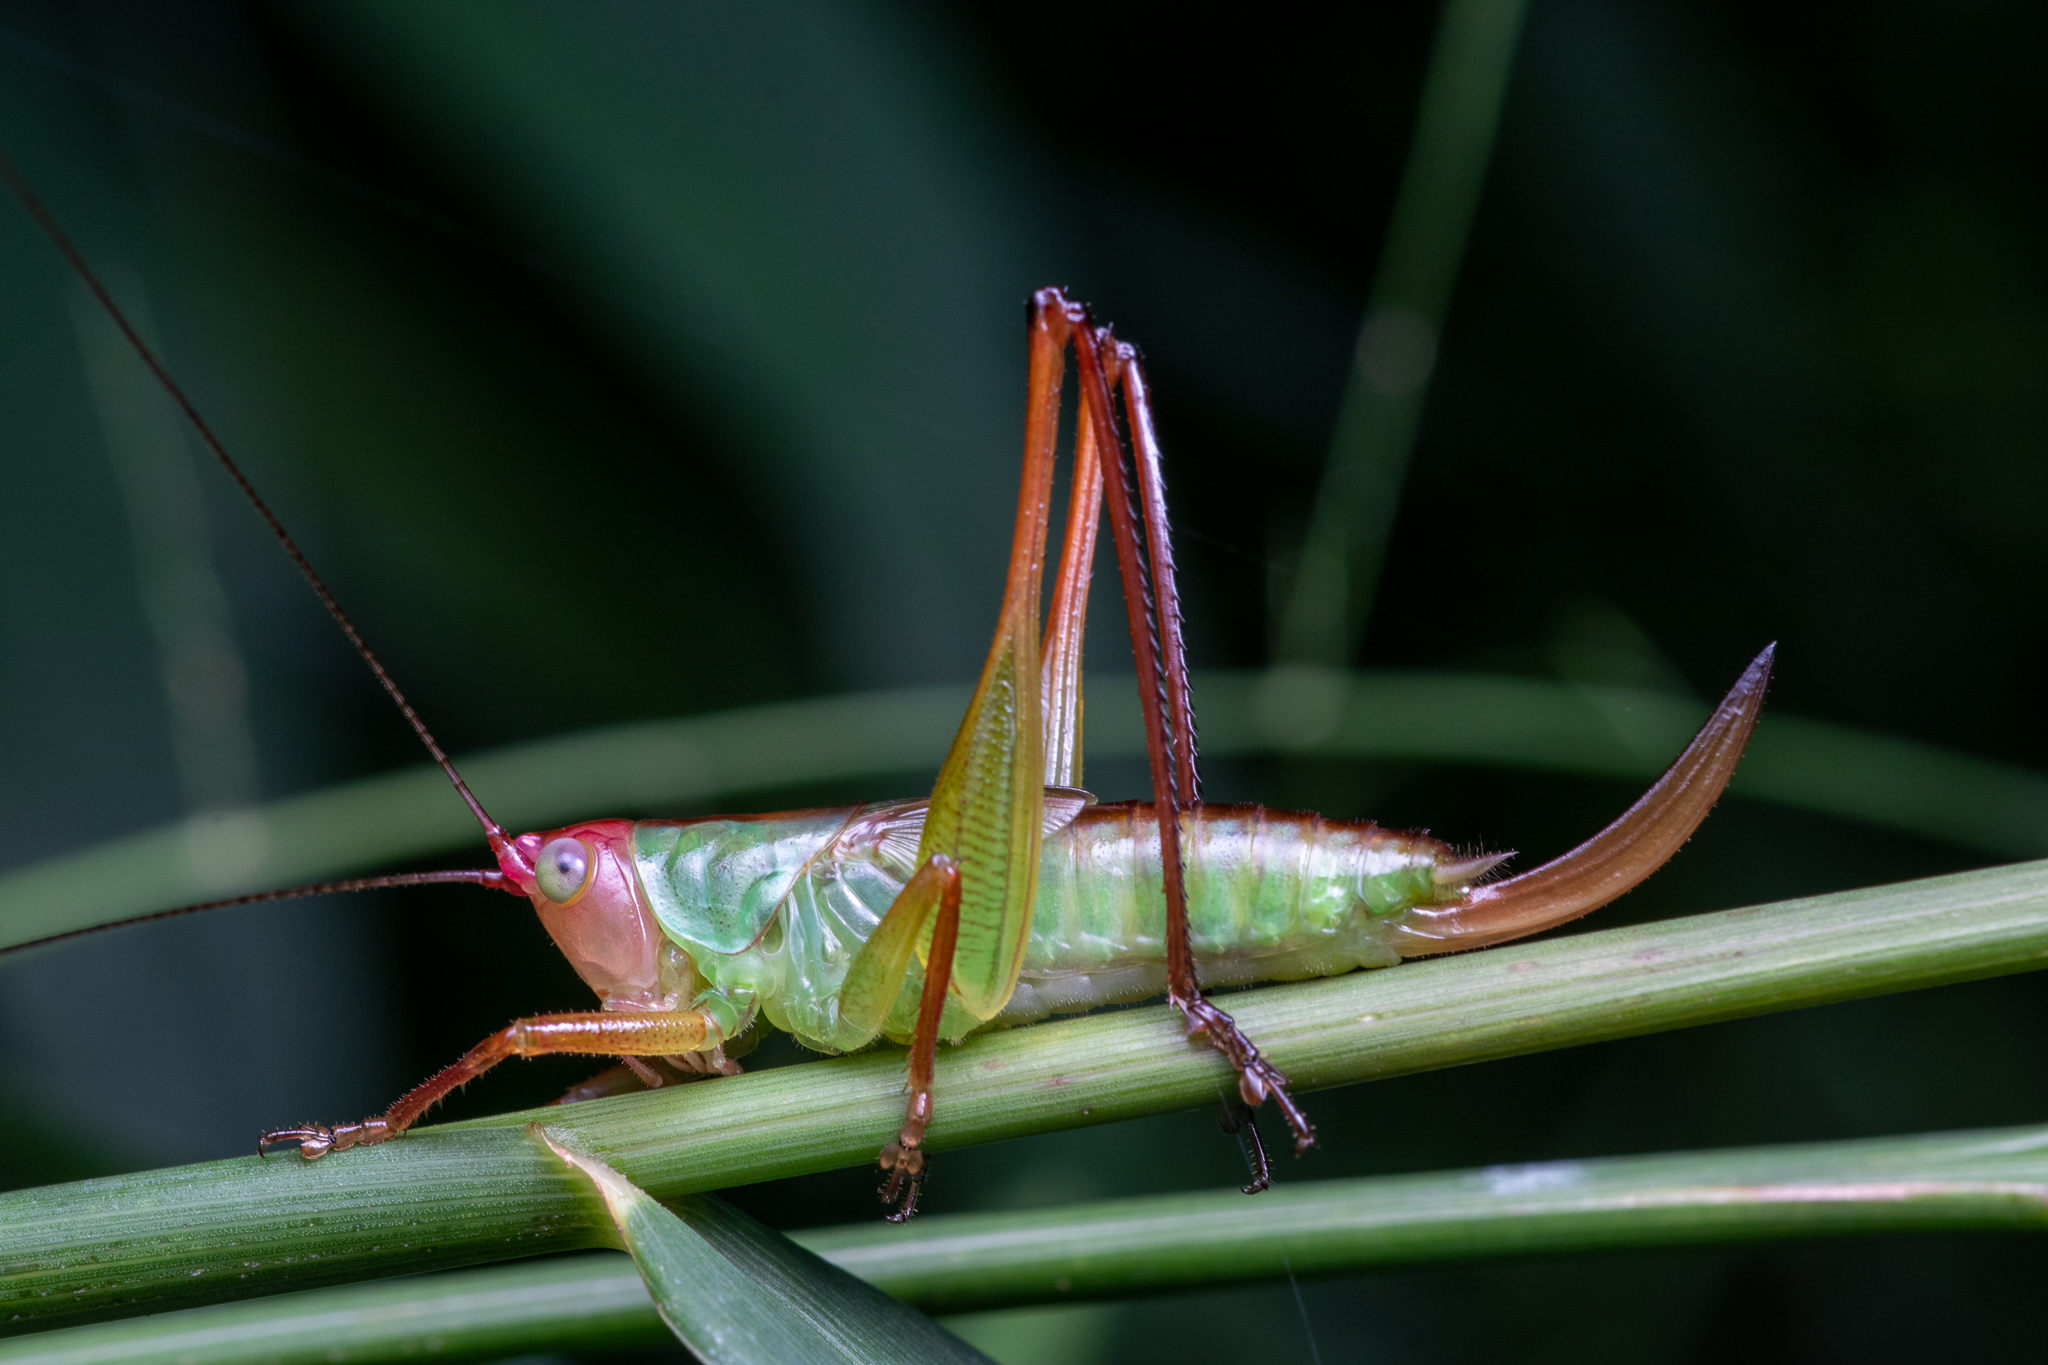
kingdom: Animalia
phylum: Arthropoda
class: Insecta
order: Orthoptera
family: Tettigoniidae
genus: Orchelimum
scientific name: Orchelimum pulchellum
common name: Handsome meadow katydid
